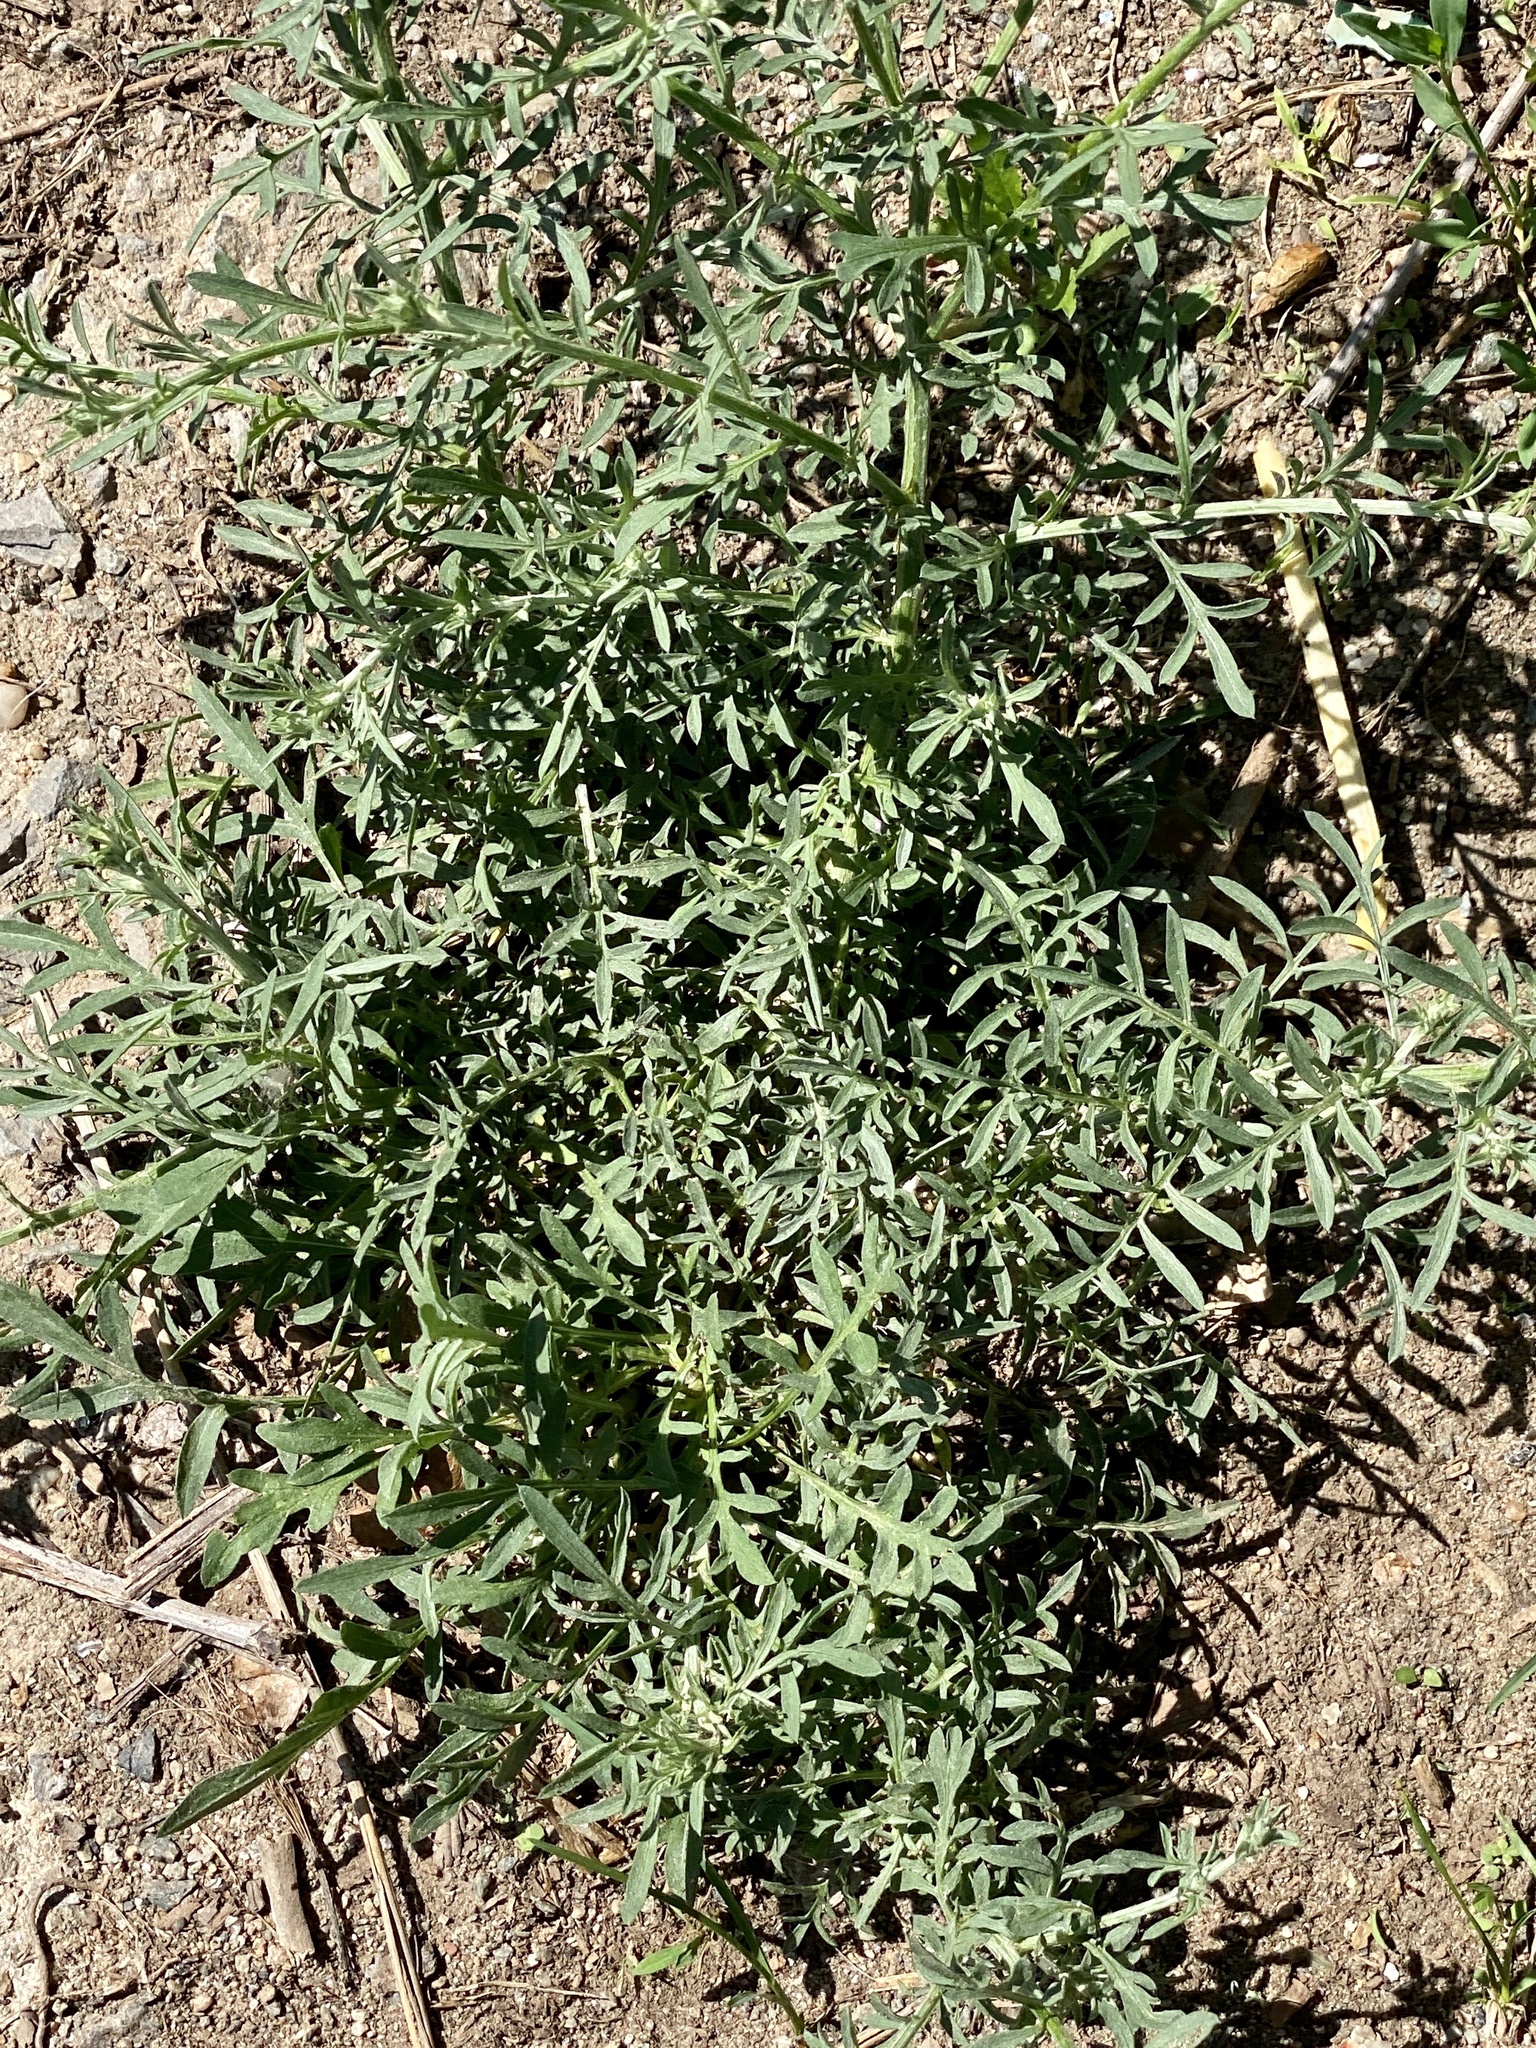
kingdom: Plantae
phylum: Tracheophyta
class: Magnoliopsida
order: Asterales
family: Asteraceae
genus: Centaurea
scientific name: Centaurea stoebe
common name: Spotted knapweed
